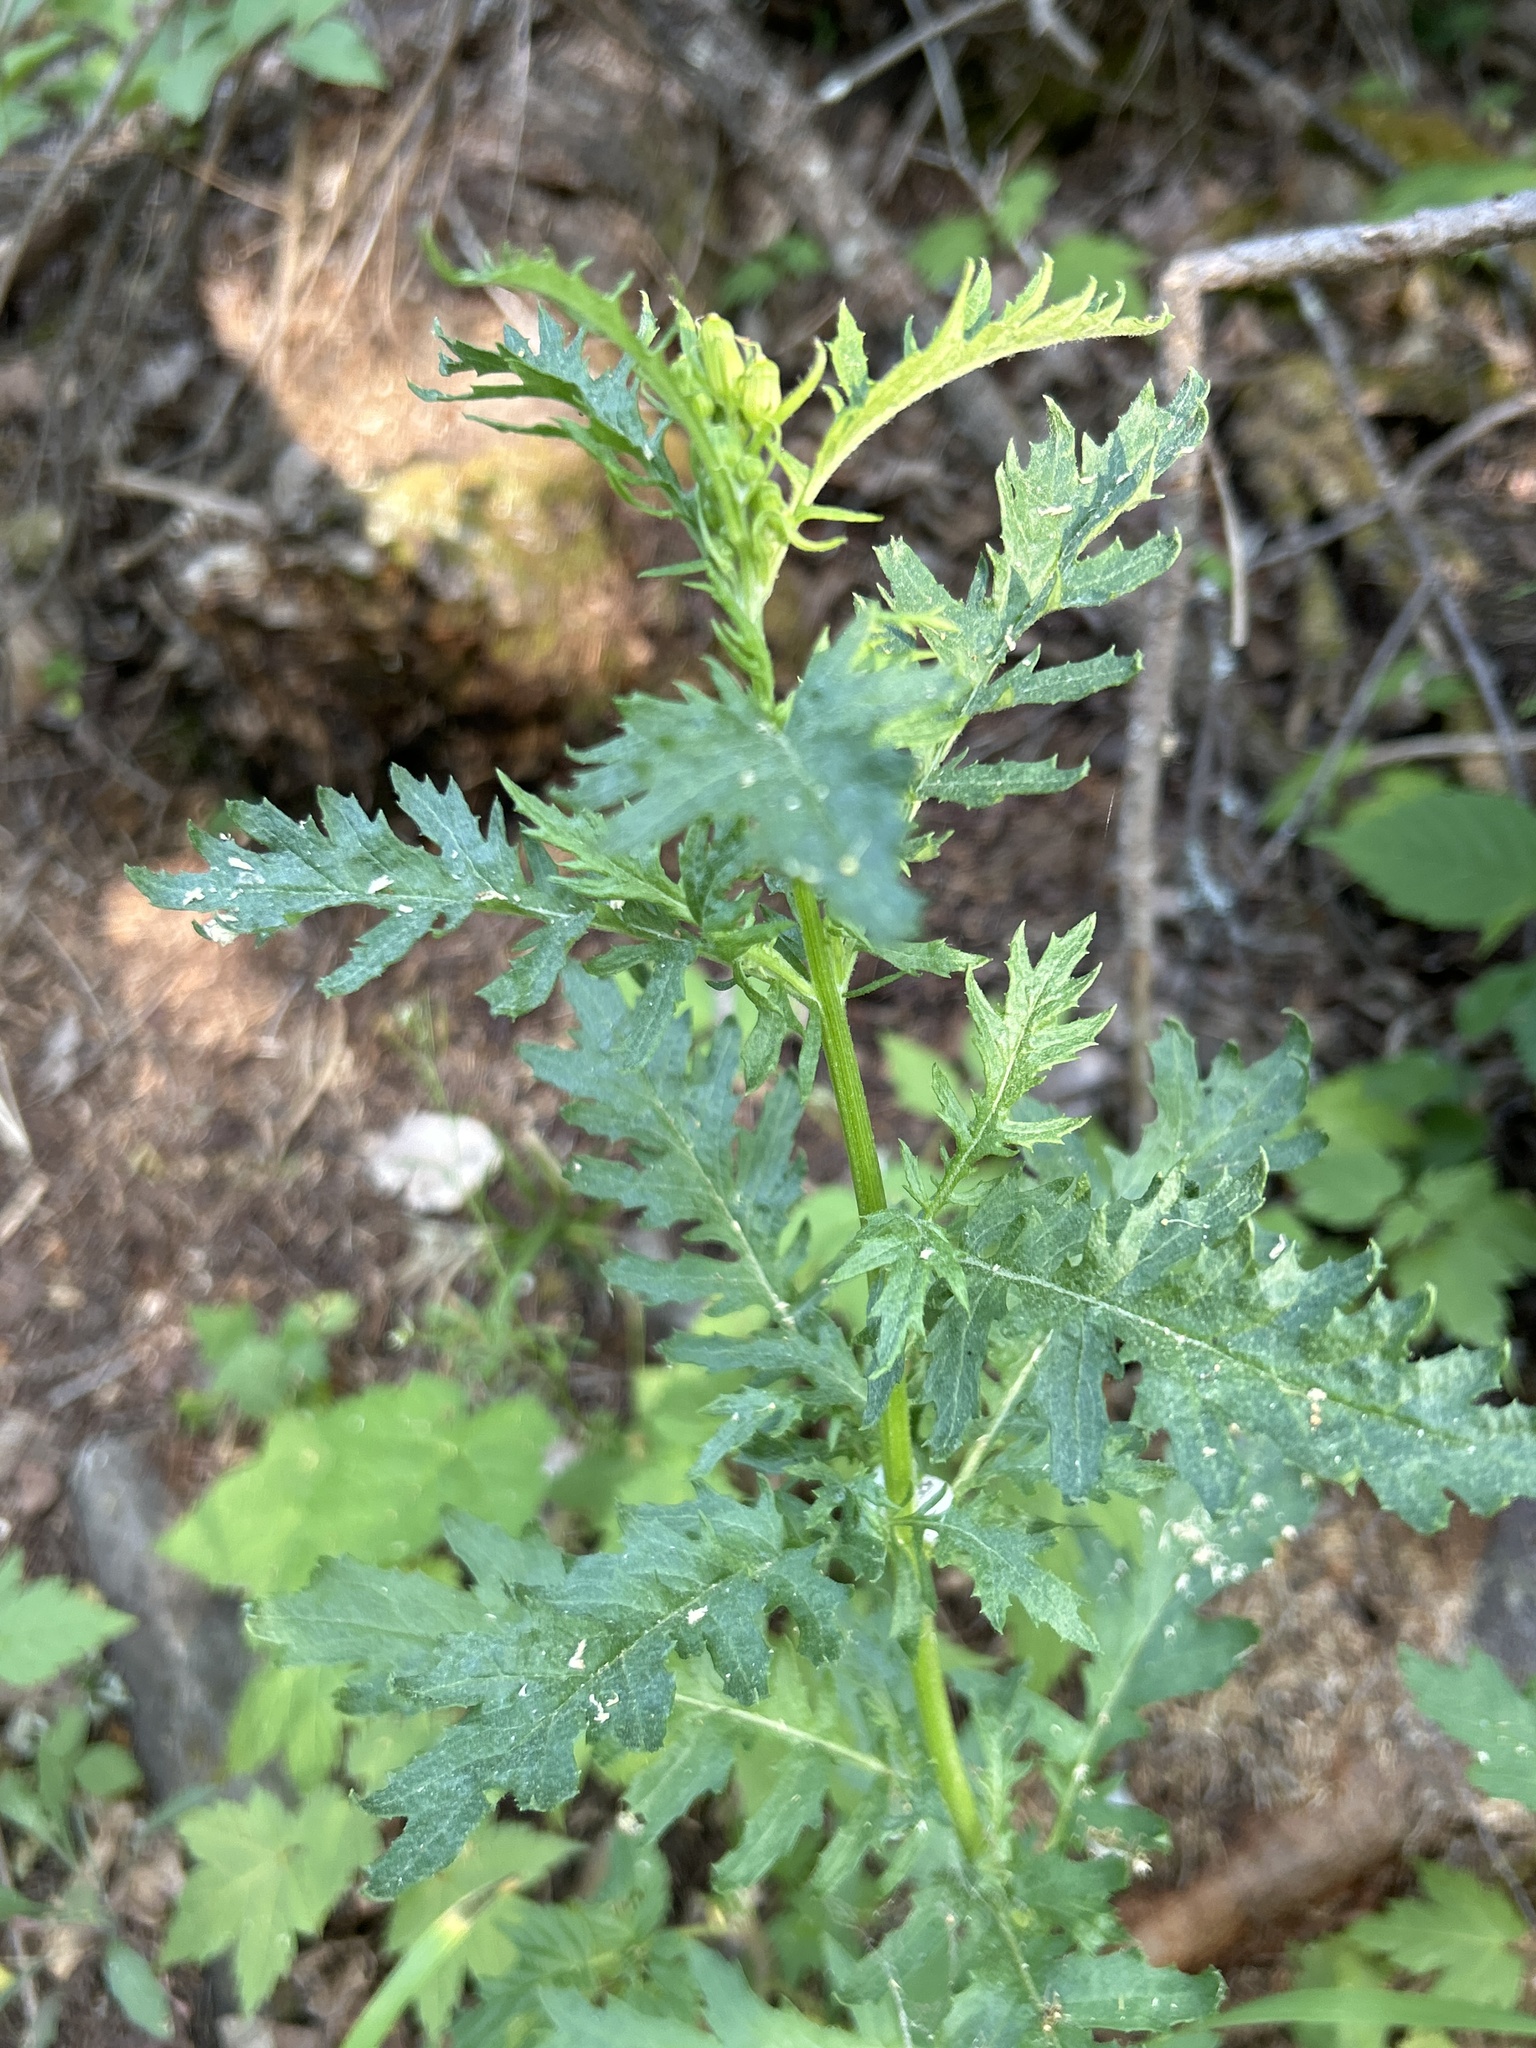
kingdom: Plantae
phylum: Tracheophyta
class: Magnoliopsida
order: Asterales
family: Asteraceae
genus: Senecio
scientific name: Senecio eremophilus
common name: Desert ragwort
